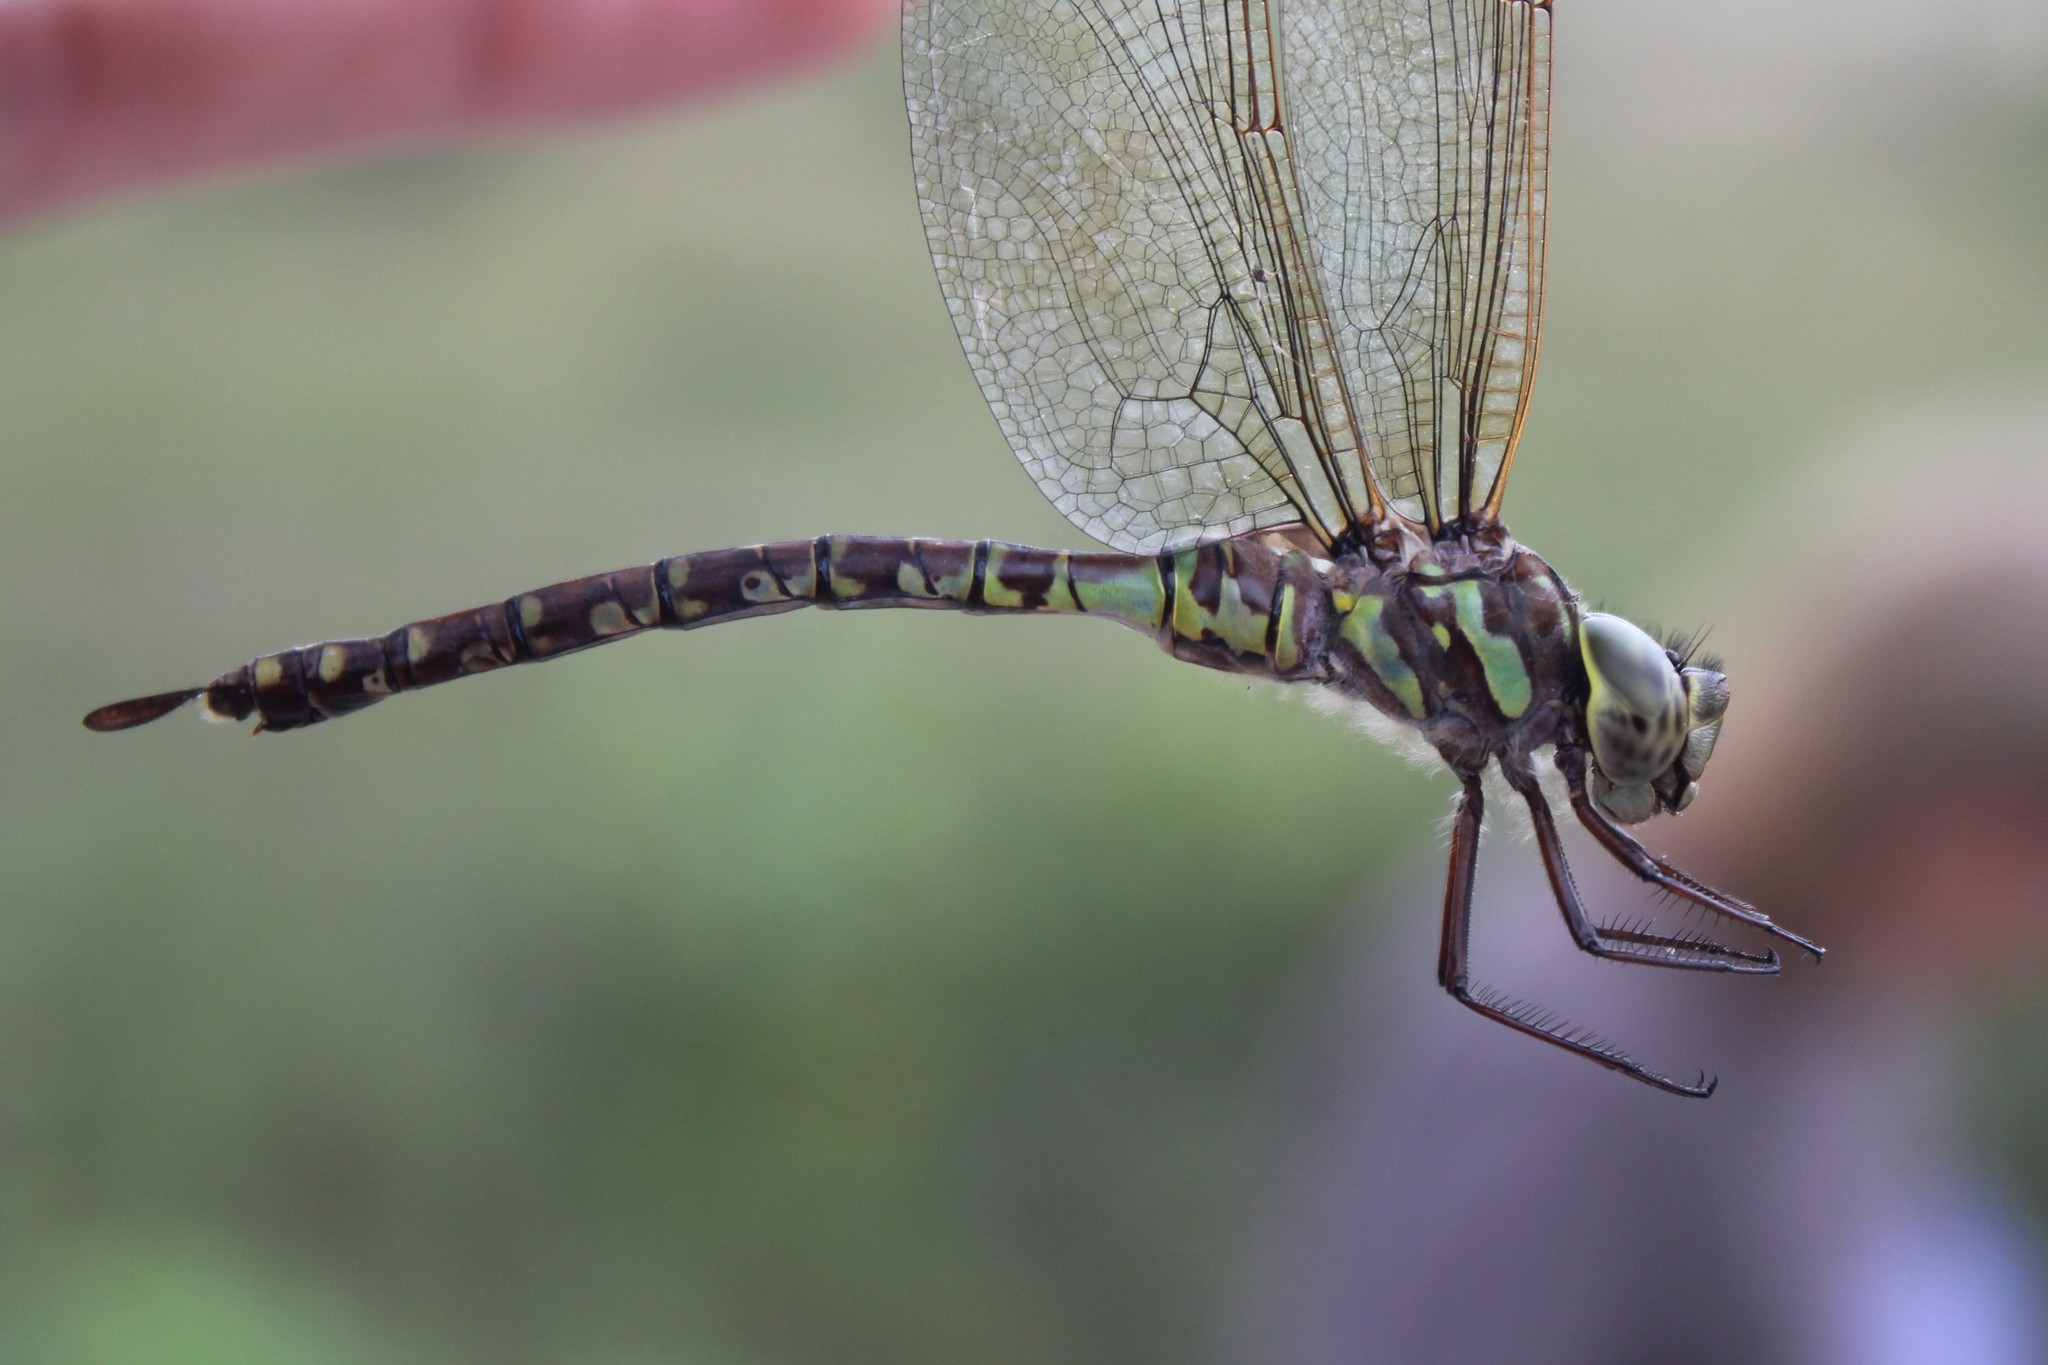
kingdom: Animalia
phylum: Arthropoda
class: Insecta
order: Odonata
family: Aeshnidae
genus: Aeshna
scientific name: Aeshna canadensis
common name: Canada darner
